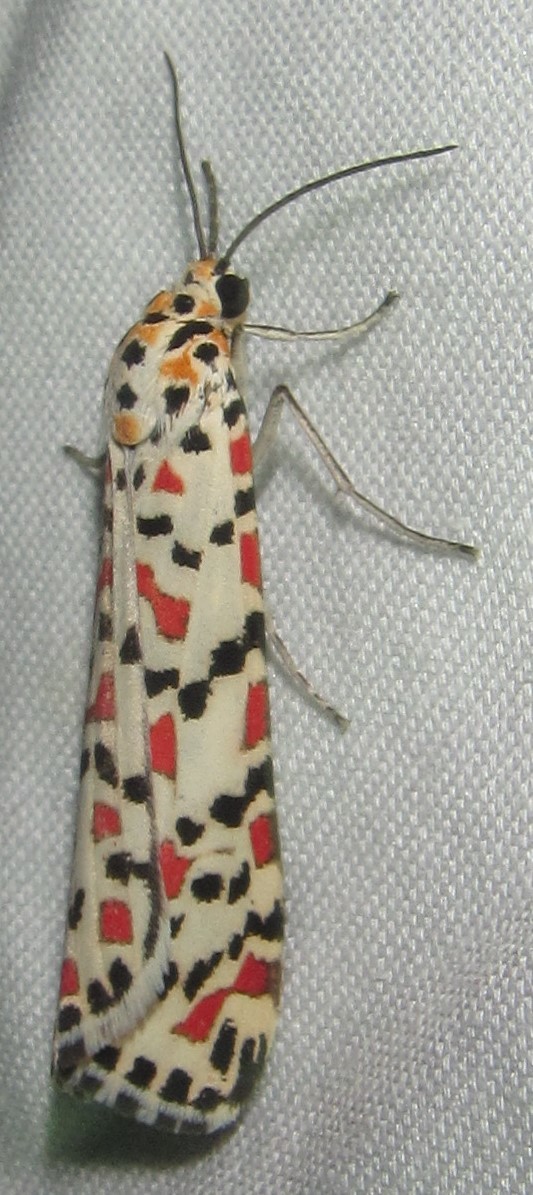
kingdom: Animalia
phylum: Arthropoda
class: Insecta
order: Lepidoptera
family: Erebidae
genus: Utetheisa
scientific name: Utetheisa pulchella
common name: Crimson speckled
